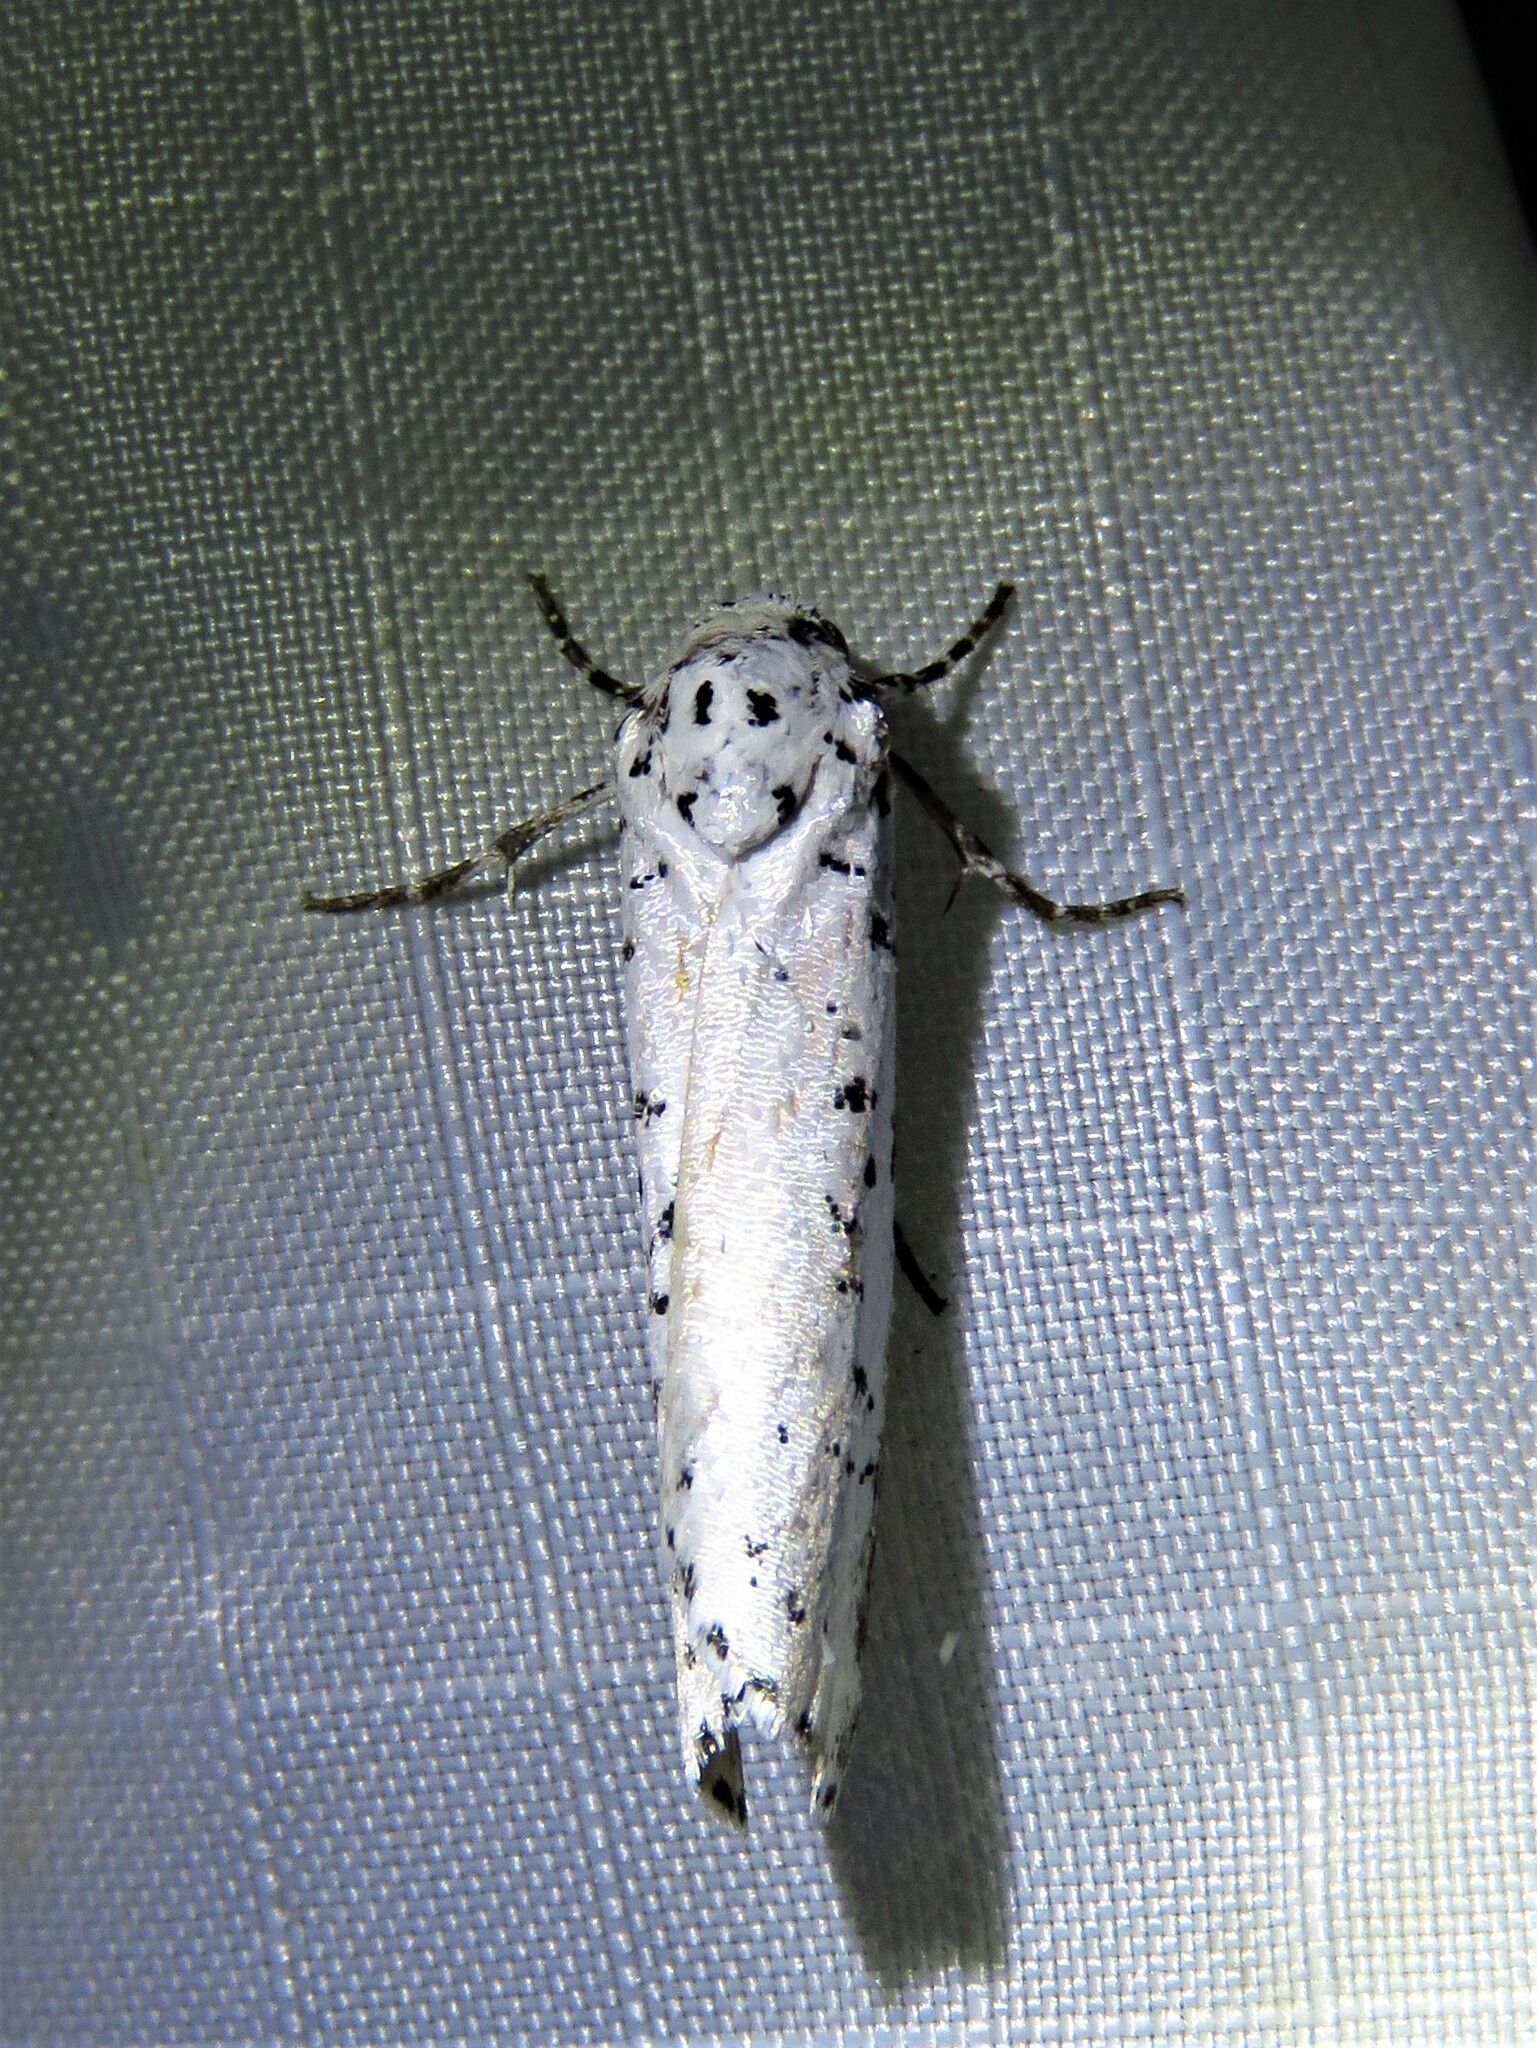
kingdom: Animalia
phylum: Arthropoda
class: Insecta
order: Lepidoptera
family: Noctuidae
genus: Cerathosia
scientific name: Cerathosia tricolor
